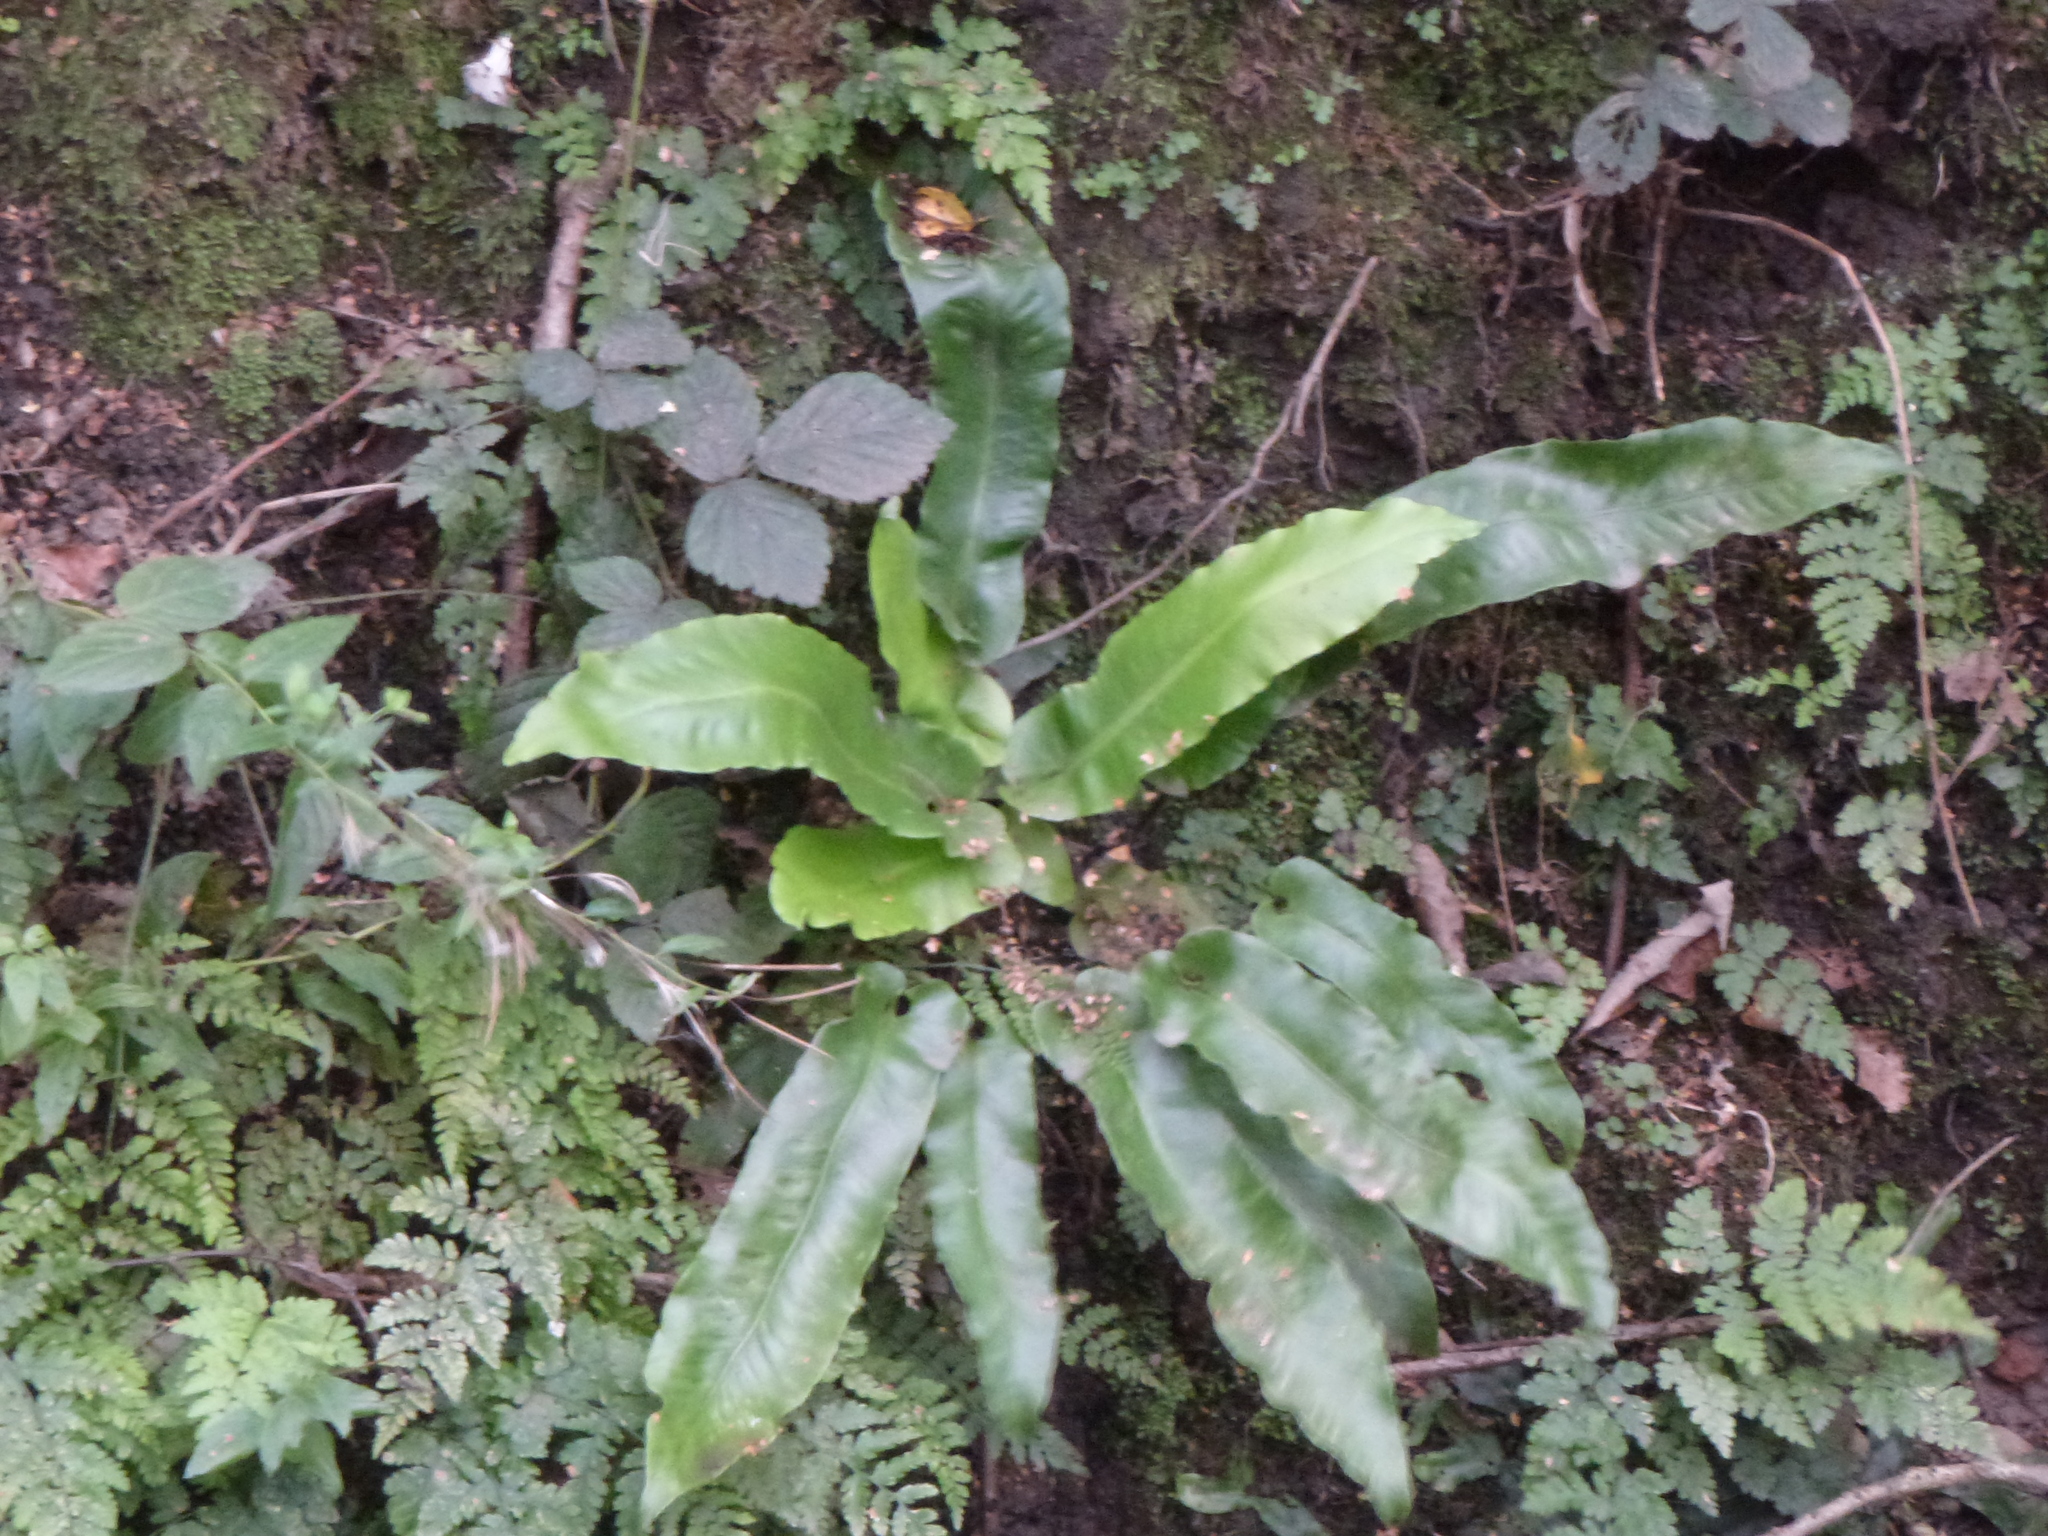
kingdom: Plantae
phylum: Tracheophyta
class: Polypodiopsida
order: Polypodiales
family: Aspleniaceae
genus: Asplenium
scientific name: Asplenium scolopendrium
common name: Hart's-tongue fern
